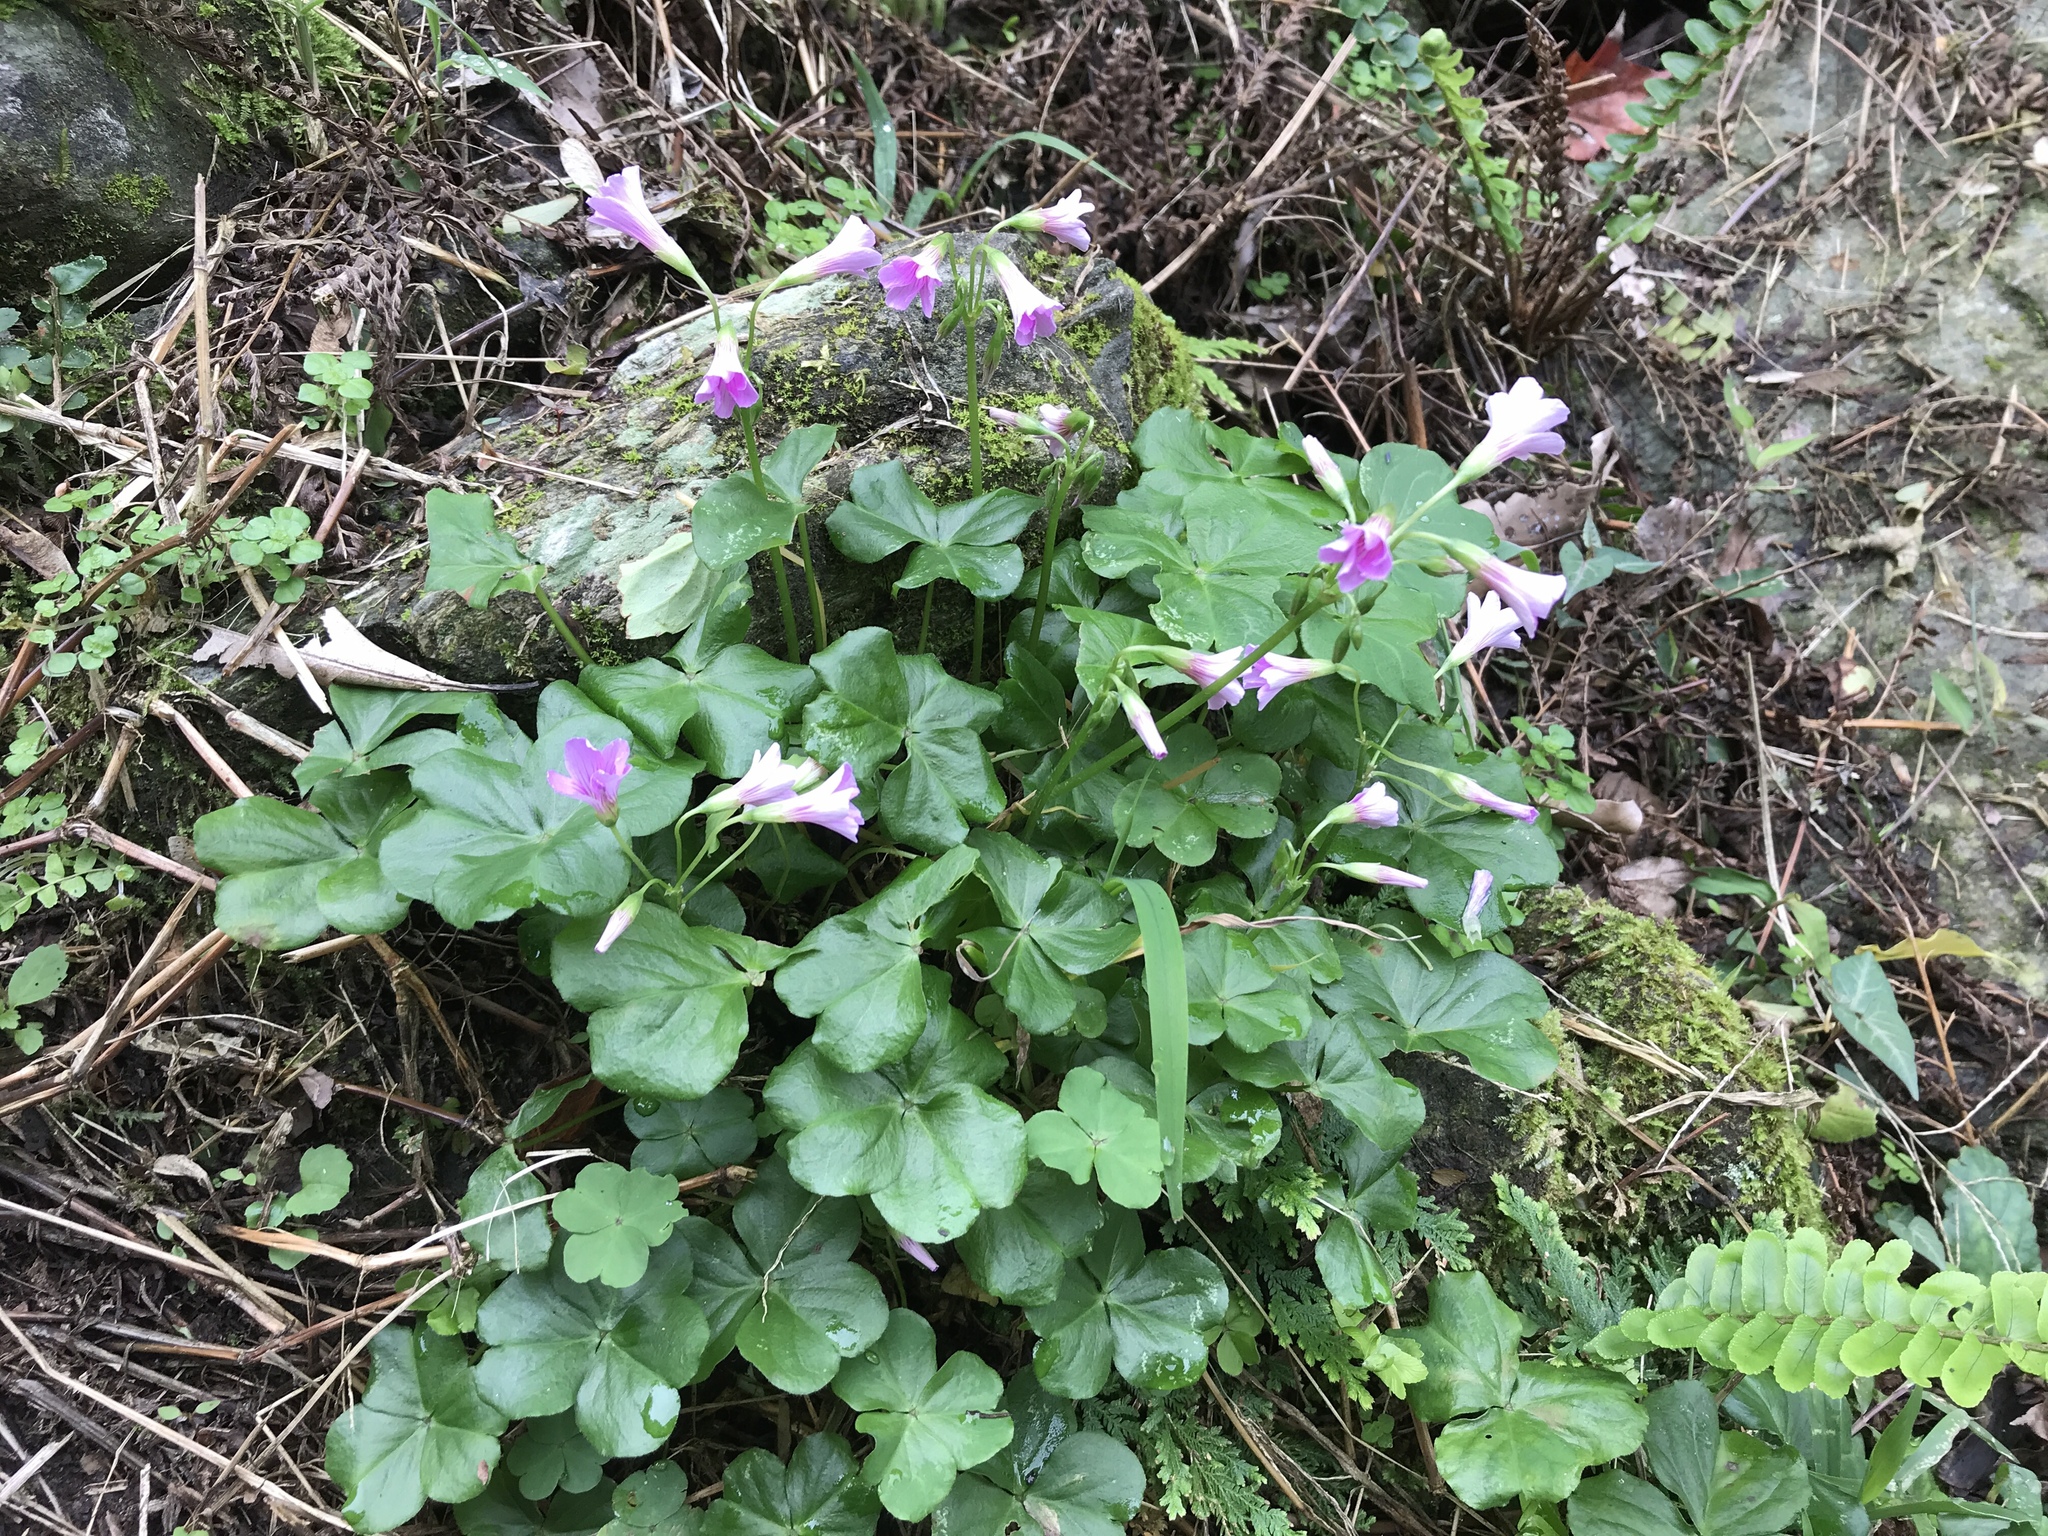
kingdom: Plantae
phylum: Tracheophyta
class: Magnoliopsida
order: Oxalidales
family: Oxalidaceae
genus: Oxalis
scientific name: Oxalis debilis
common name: Large-flowered pink-sorrel
